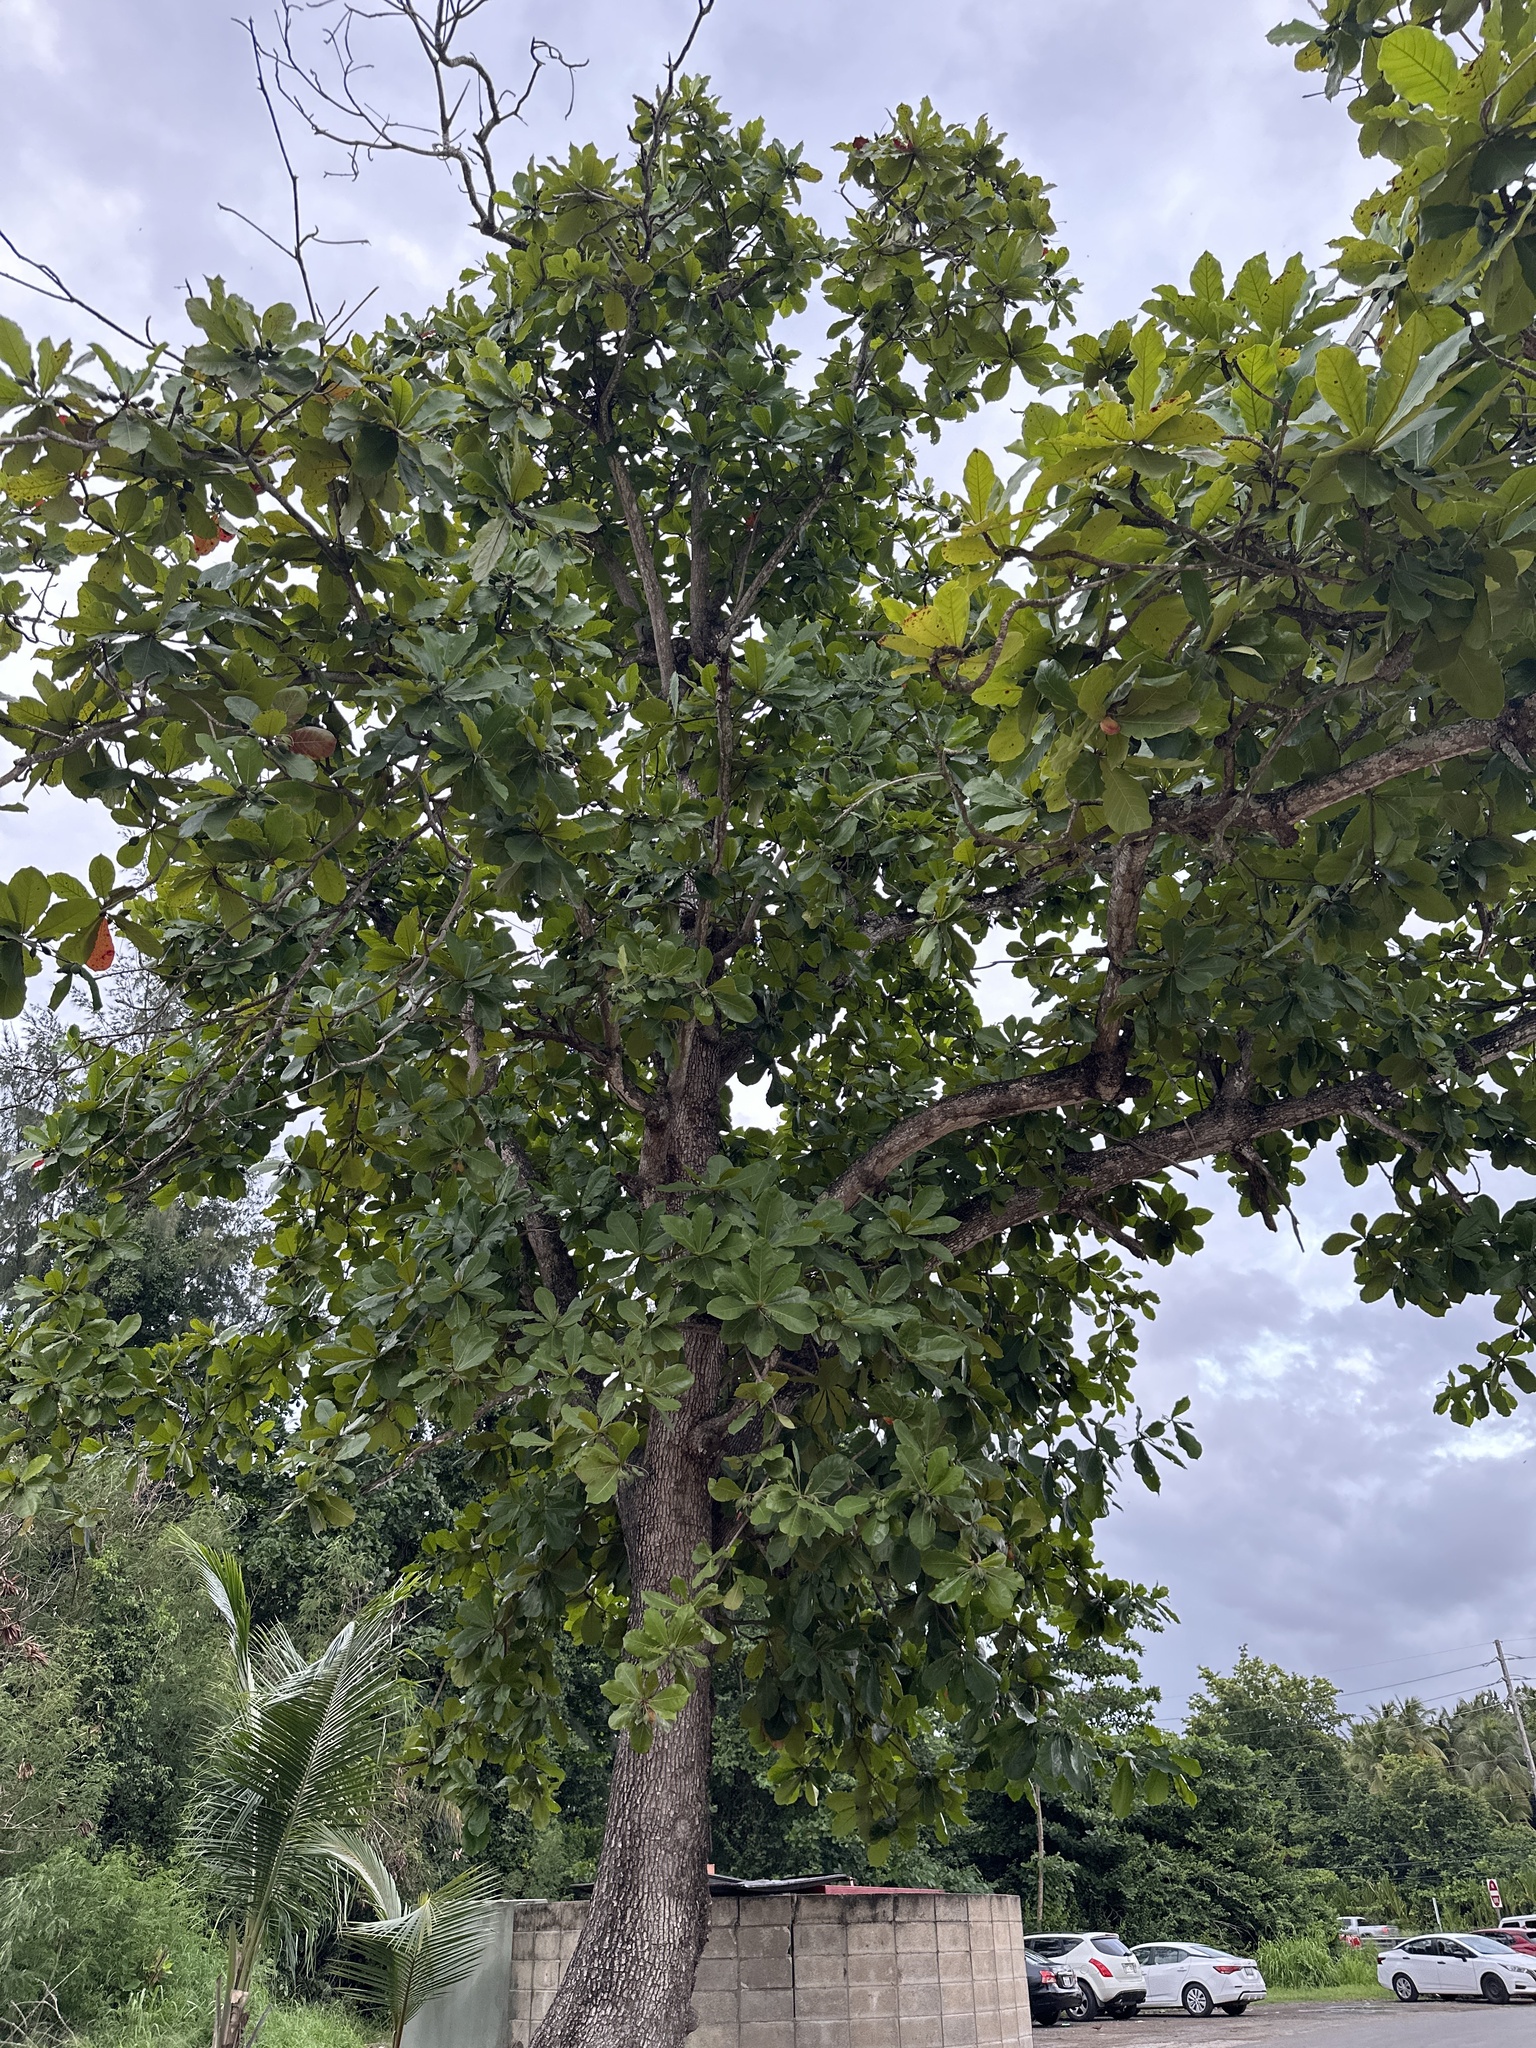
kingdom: Plantae
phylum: Tracheophyta
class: Magnoliopsida
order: Myrtales
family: Combretaceae
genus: Terminalia
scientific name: Terminalia catappa
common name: Tropical almond
